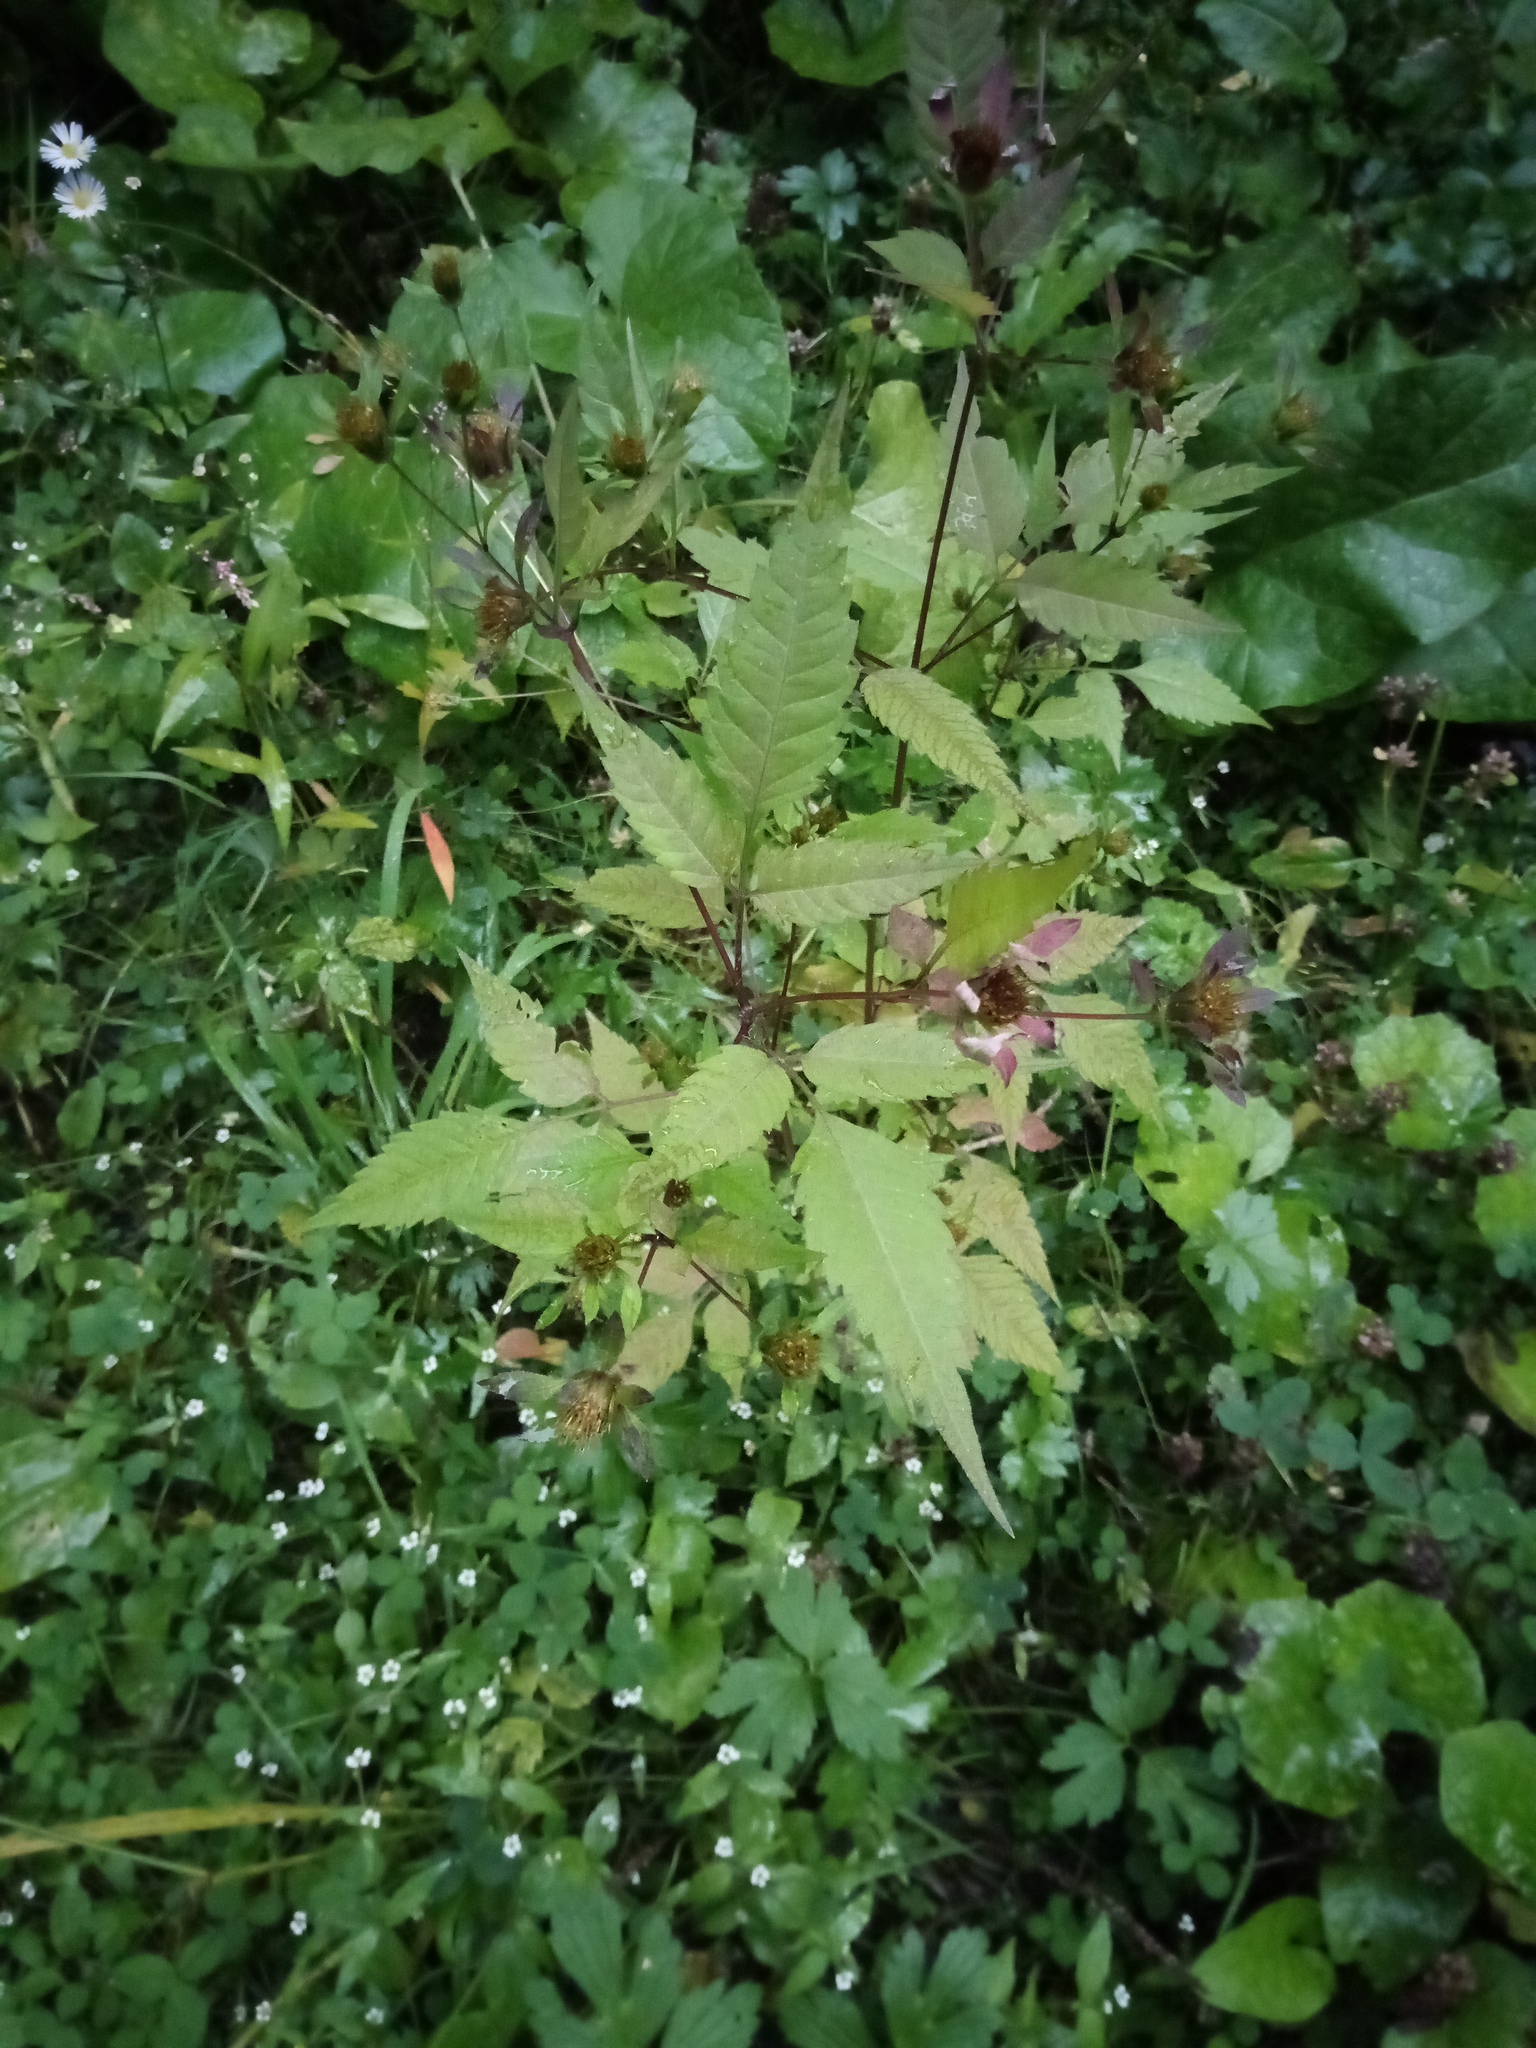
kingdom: Plantae
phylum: Tracheophyta
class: Magnoliopsida
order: Asterales
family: Asteraceae
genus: Bidens
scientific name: Bidens frondosa
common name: Beggarticks
